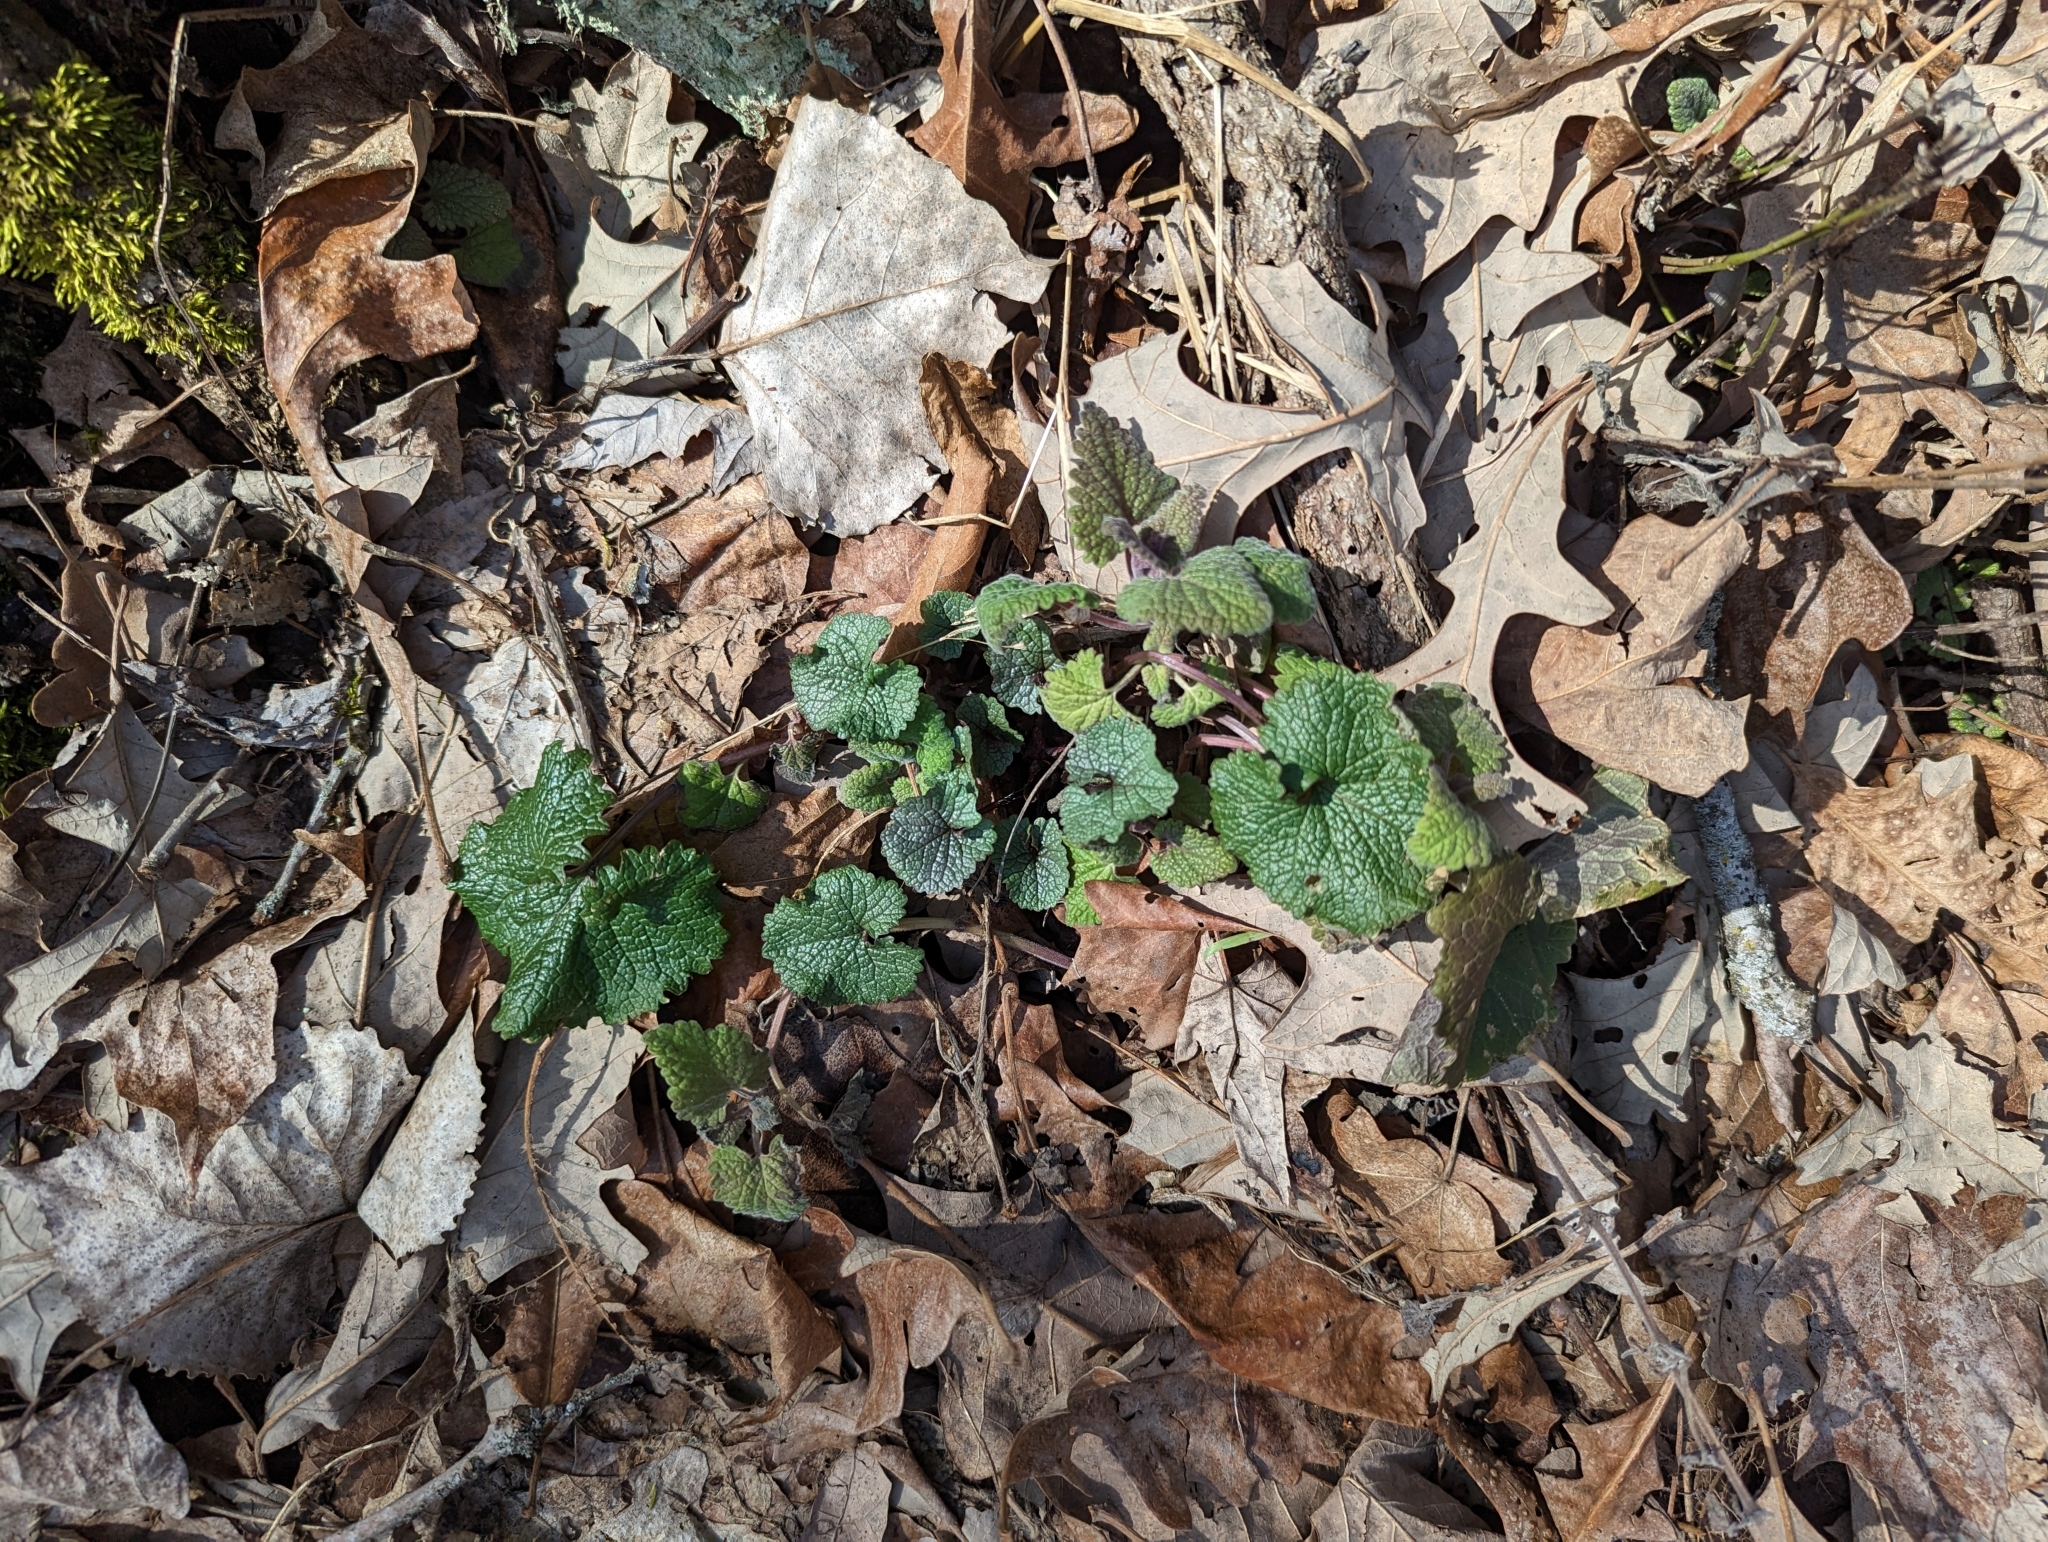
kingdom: Plantae
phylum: Tracheophyta
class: Magnoliopsida
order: Brassicales
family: Brassicaceae
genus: Alliaria
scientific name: Alliaria petiolata
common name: Garlic mustard
